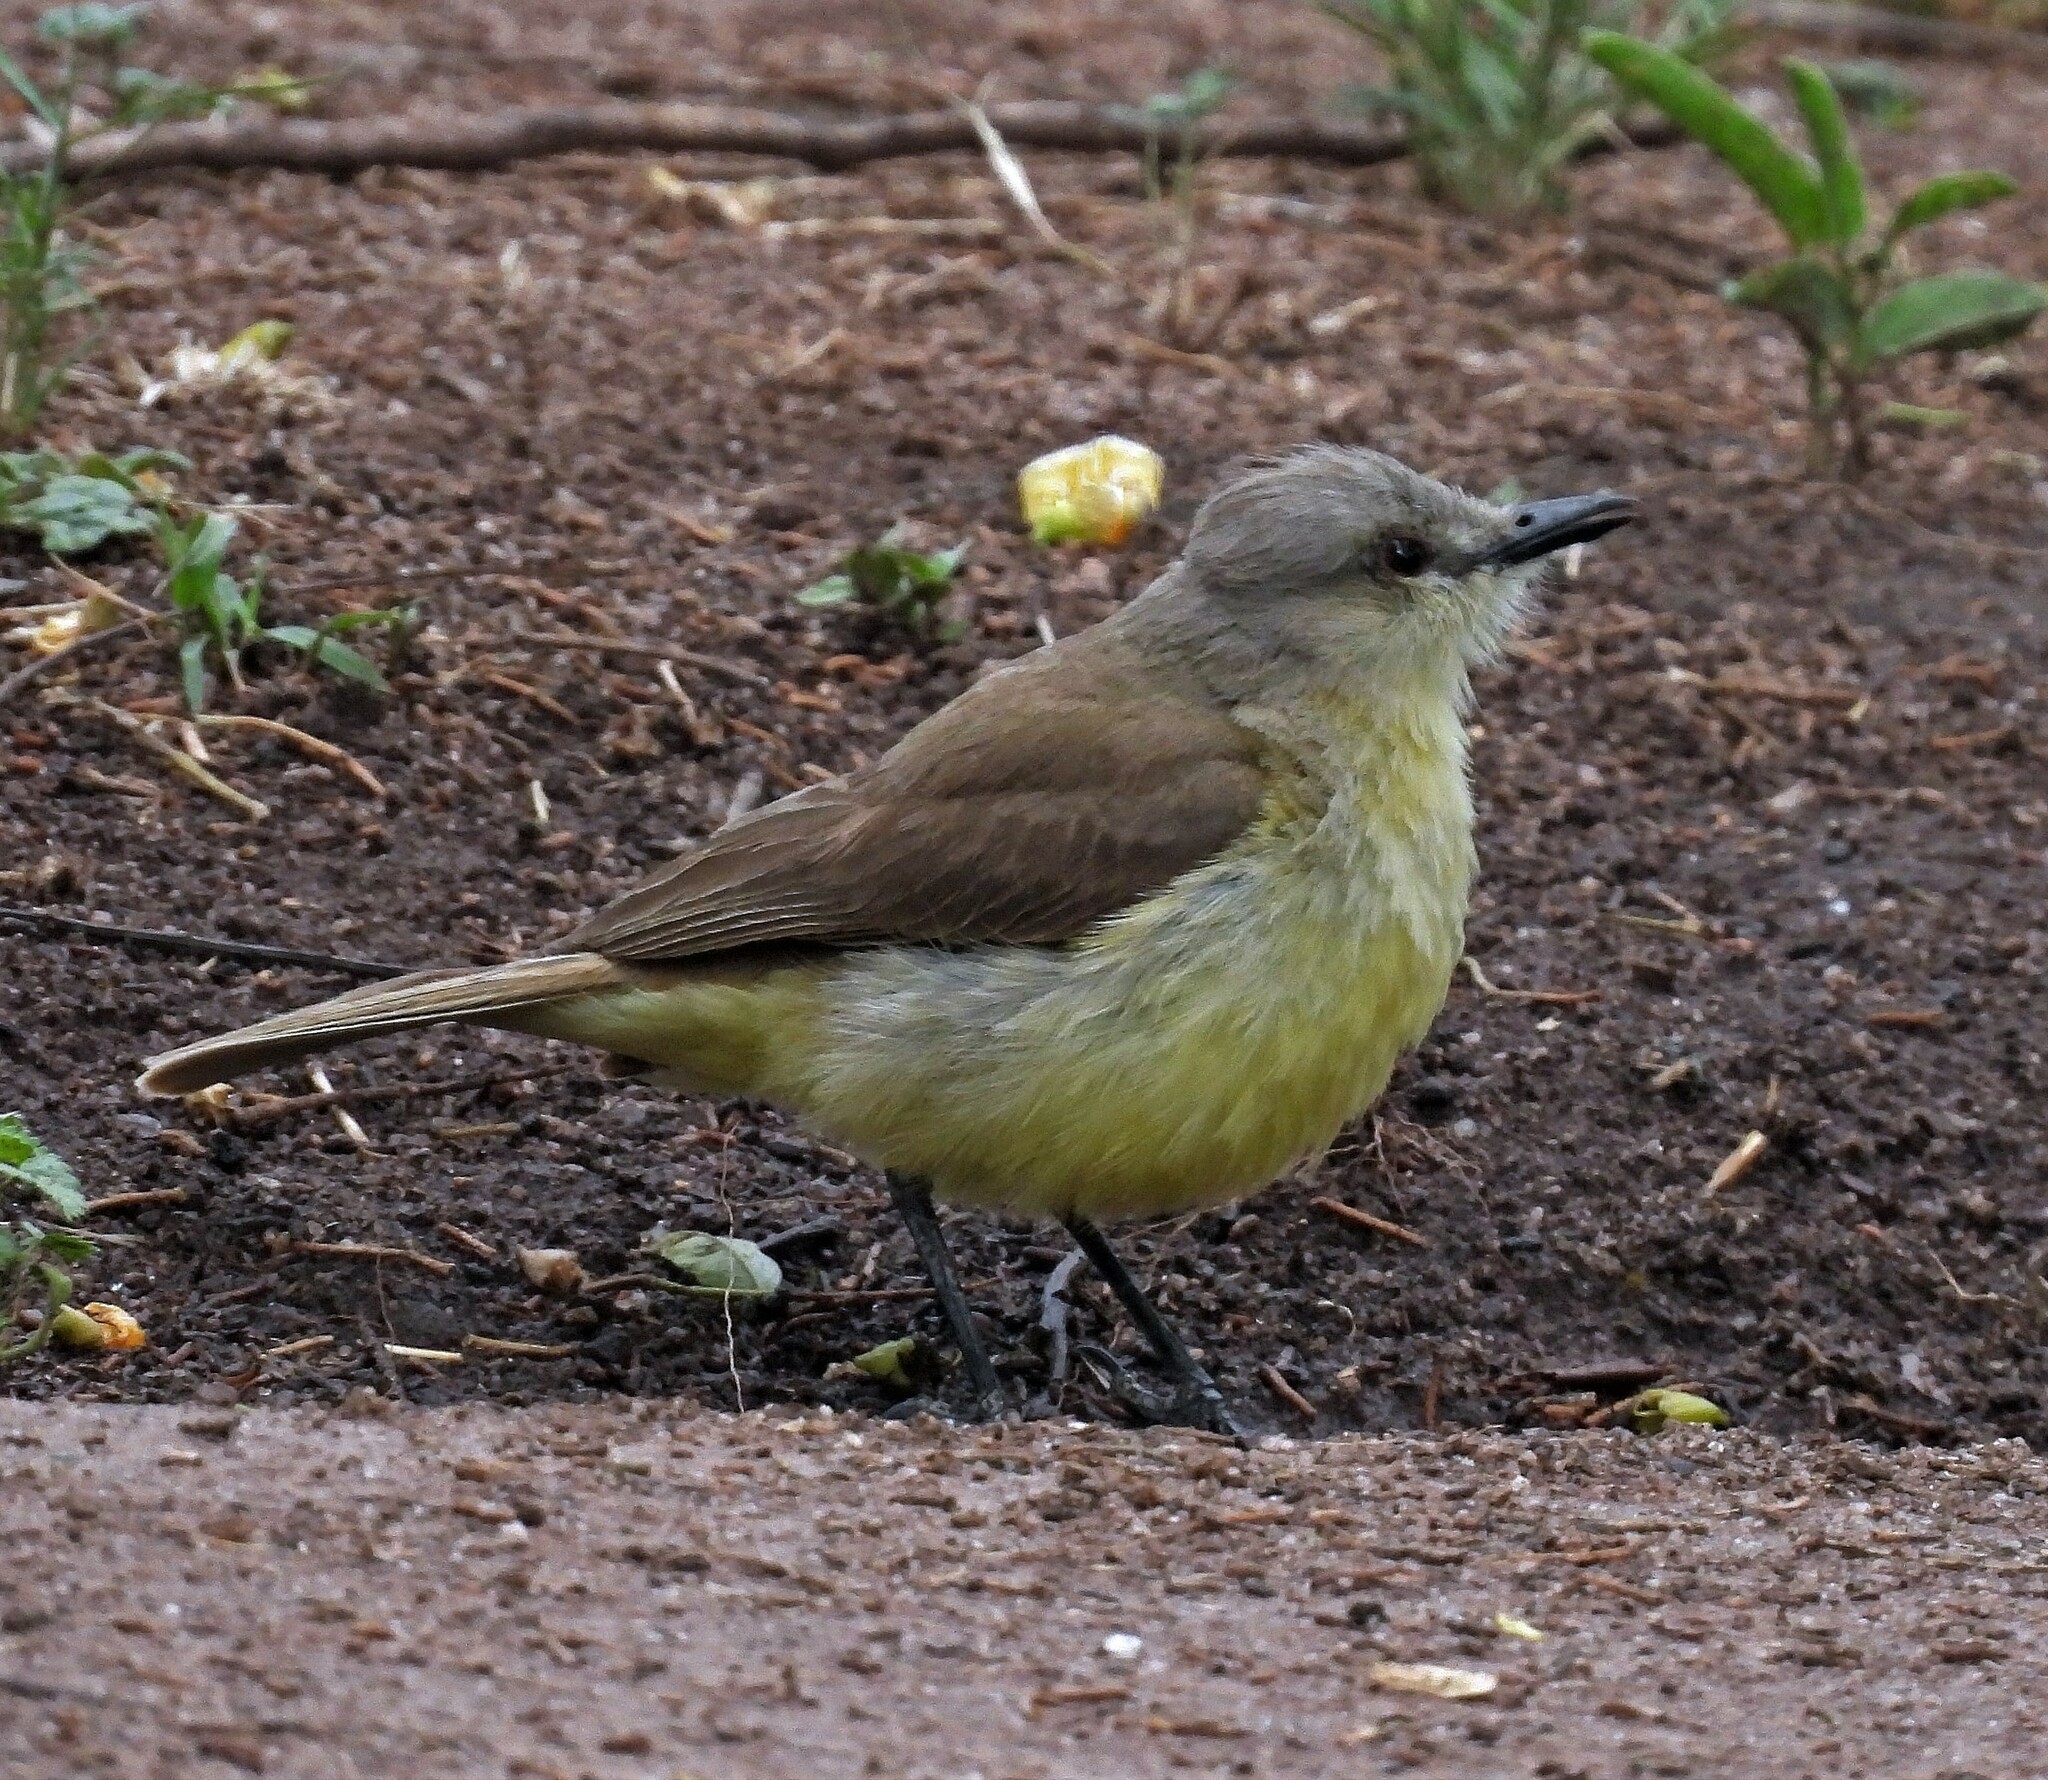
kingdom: Animalia
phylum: Chordata
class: Aves
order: Passeriformes
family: Tyrannidae
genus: Machetornis
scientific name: Machetornis rixosa
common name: Cattle tyrant
